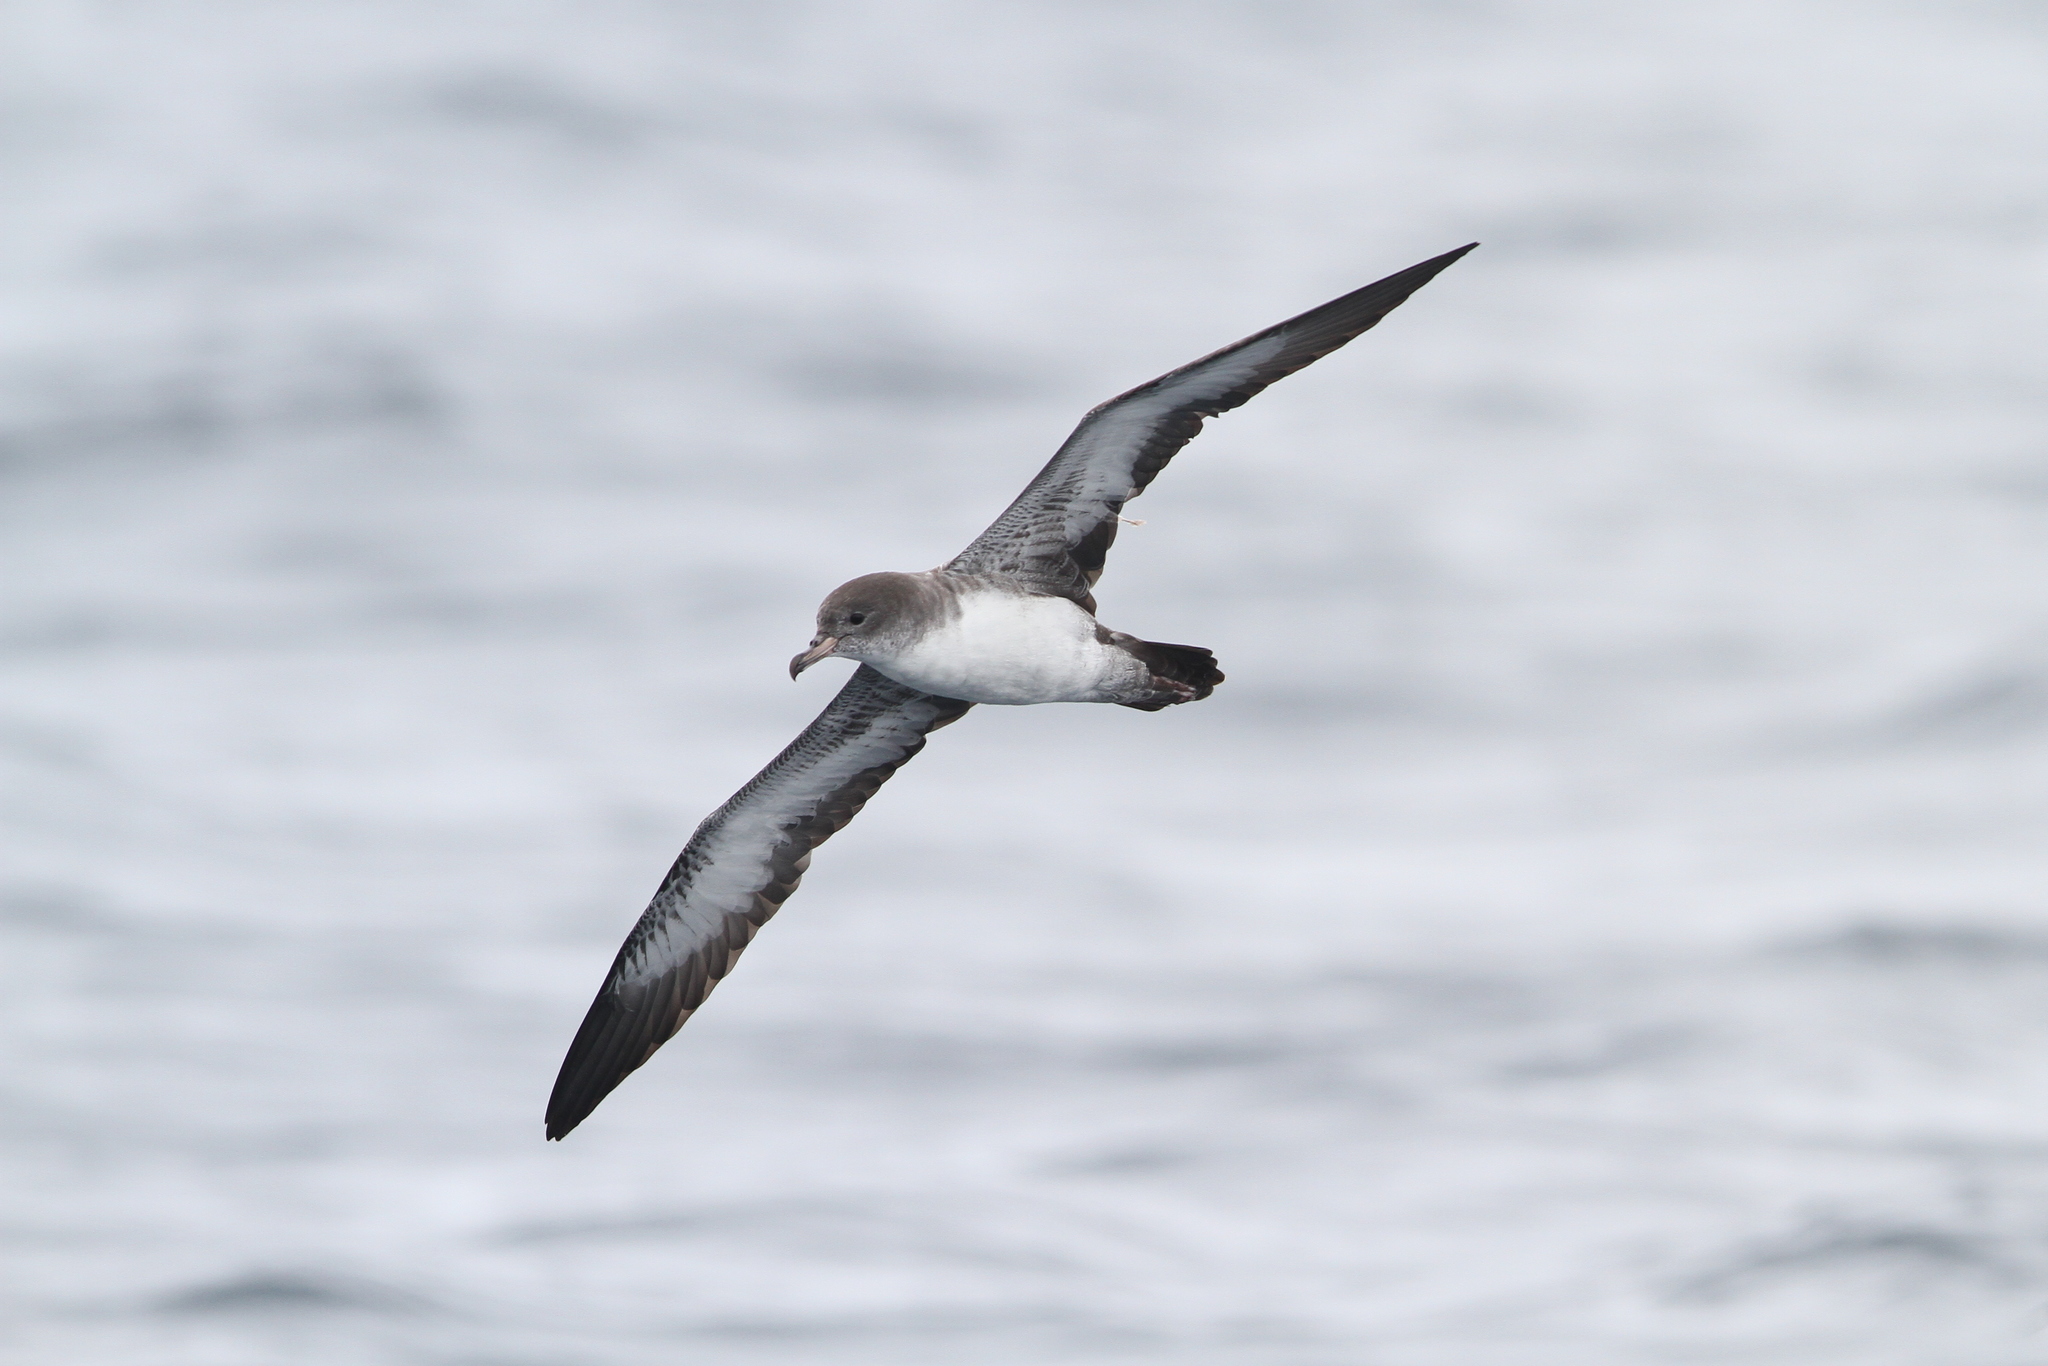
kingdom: Animalia
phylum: Chordata
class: Aves
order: Procellariiformes
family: Procellariidae
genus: Puffinus
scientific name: Puffinus creatopus
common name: Pink-footed shearwater
